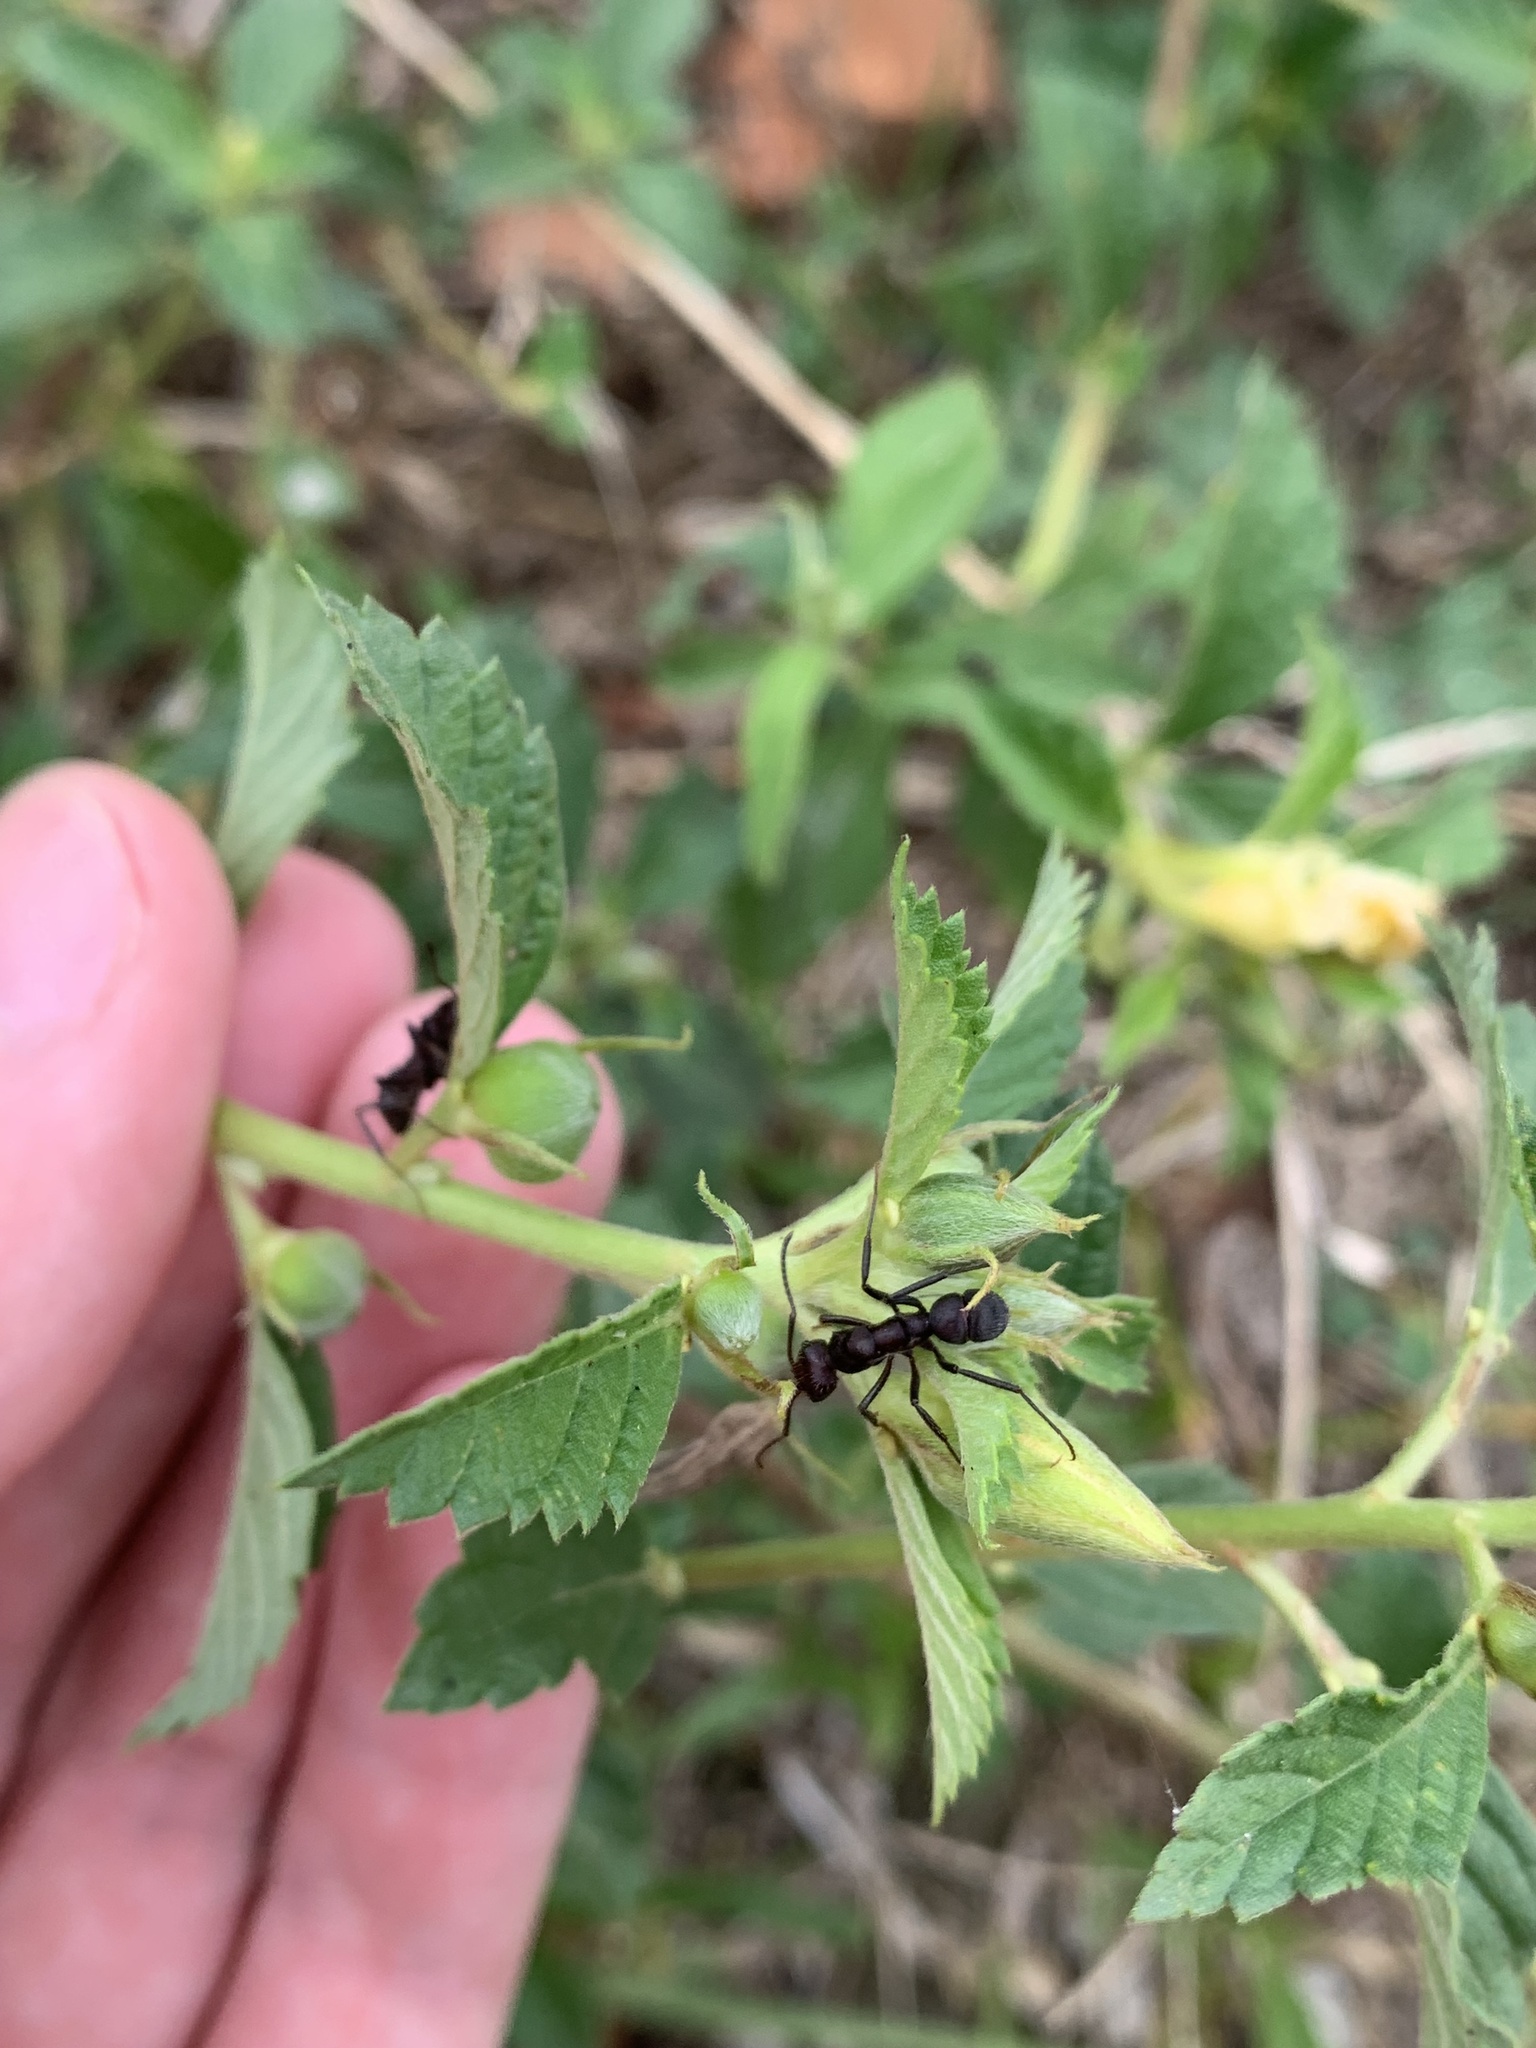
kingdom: Animalia
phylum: Arthropoda
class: Insecta
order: Hymenoptera
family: Formicidae
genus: Ectatomma
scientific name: Ectatomma brunneum
